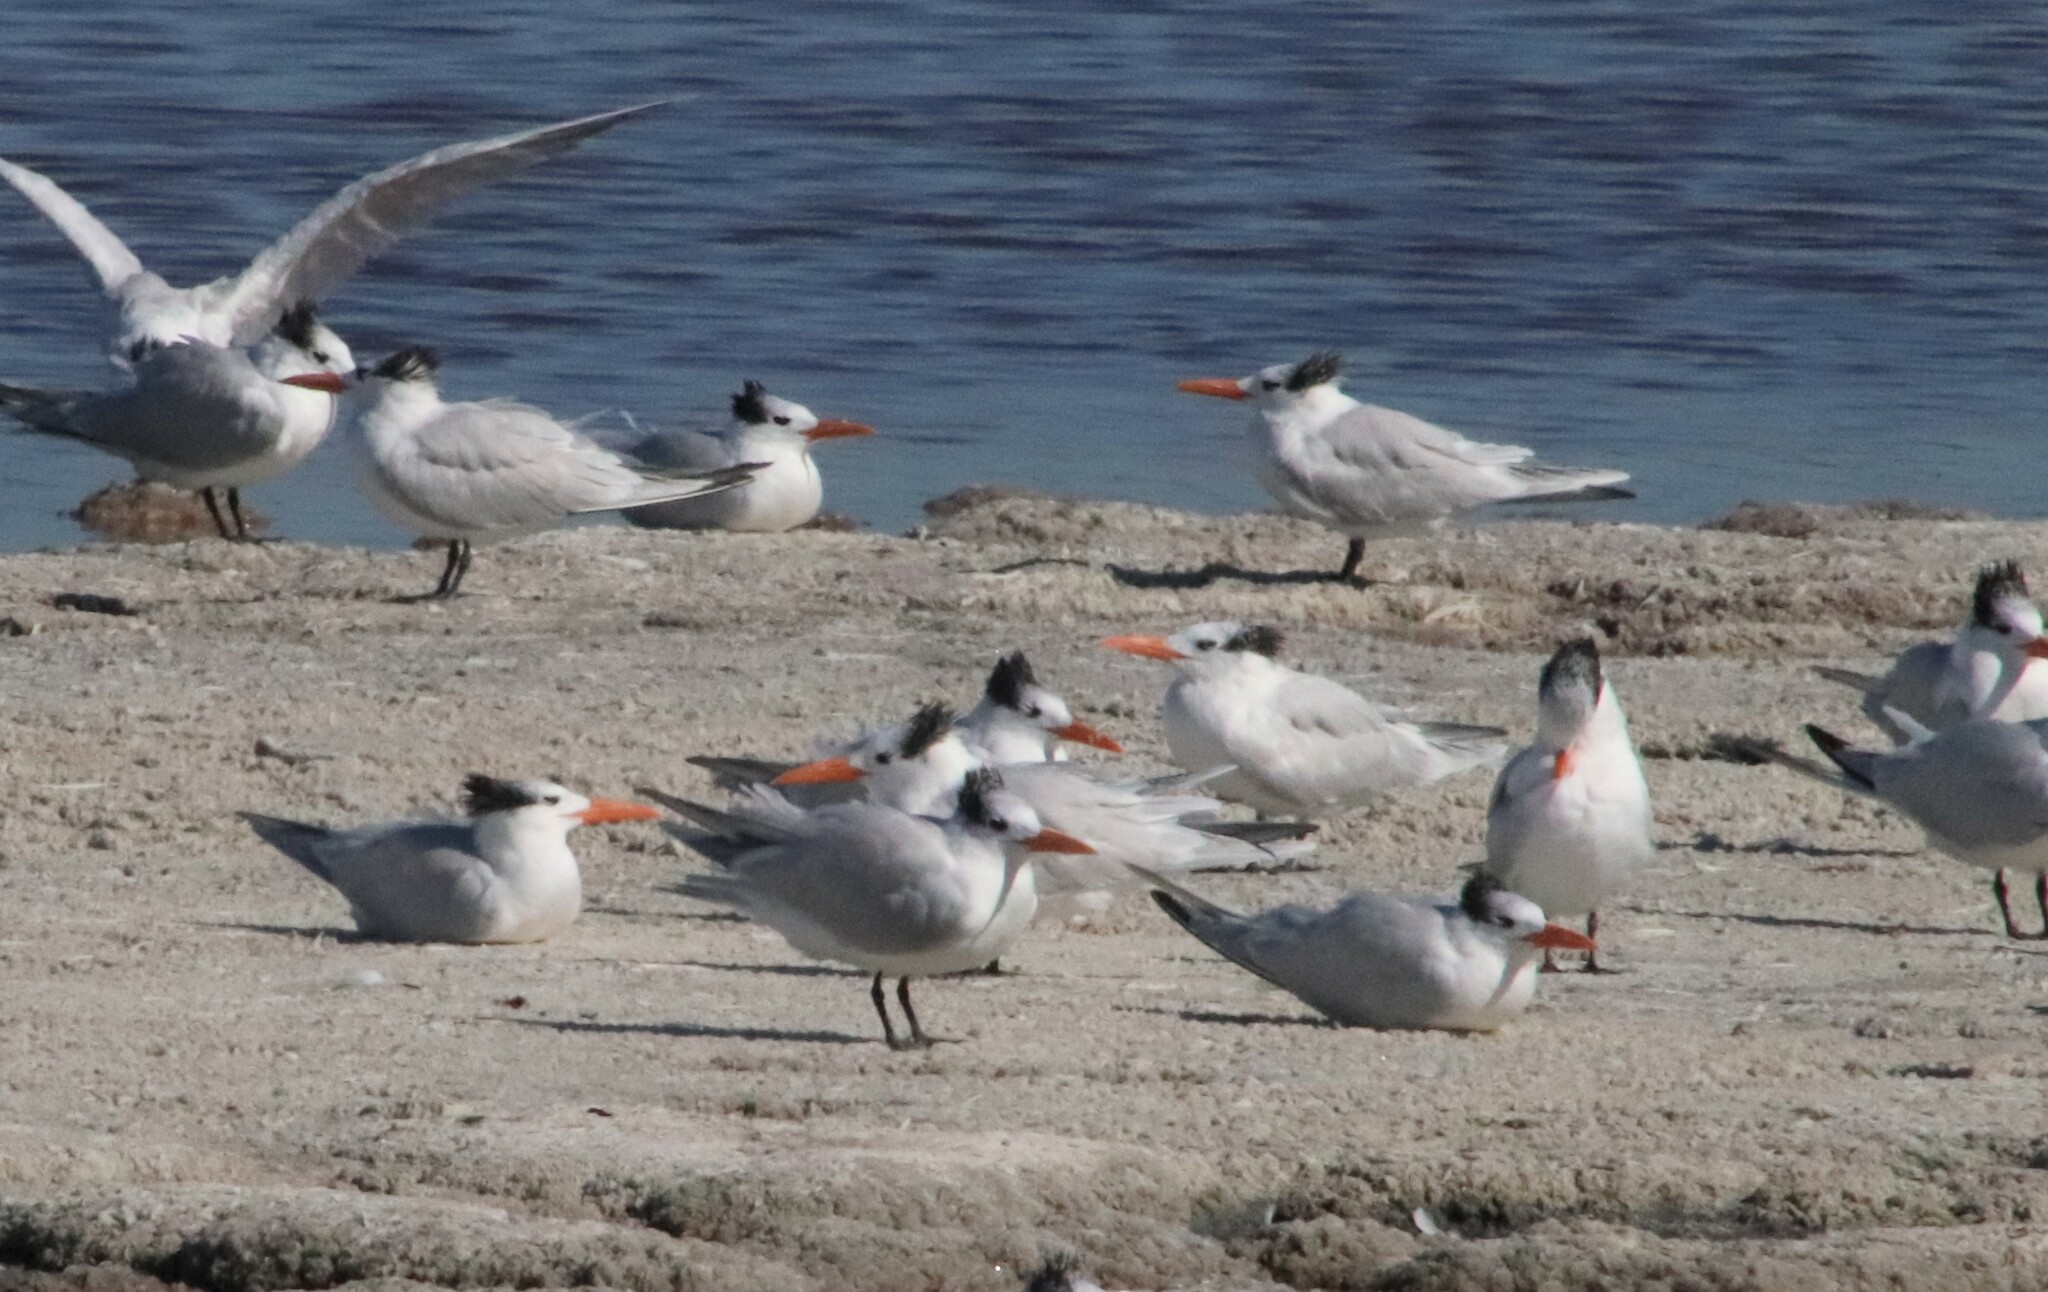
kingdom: Animalia
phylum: Chordata
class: Aves
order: Charadriiformes
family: Laridae
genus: Thalasseus
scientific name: Thalasseus maximus
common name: Royal tern
